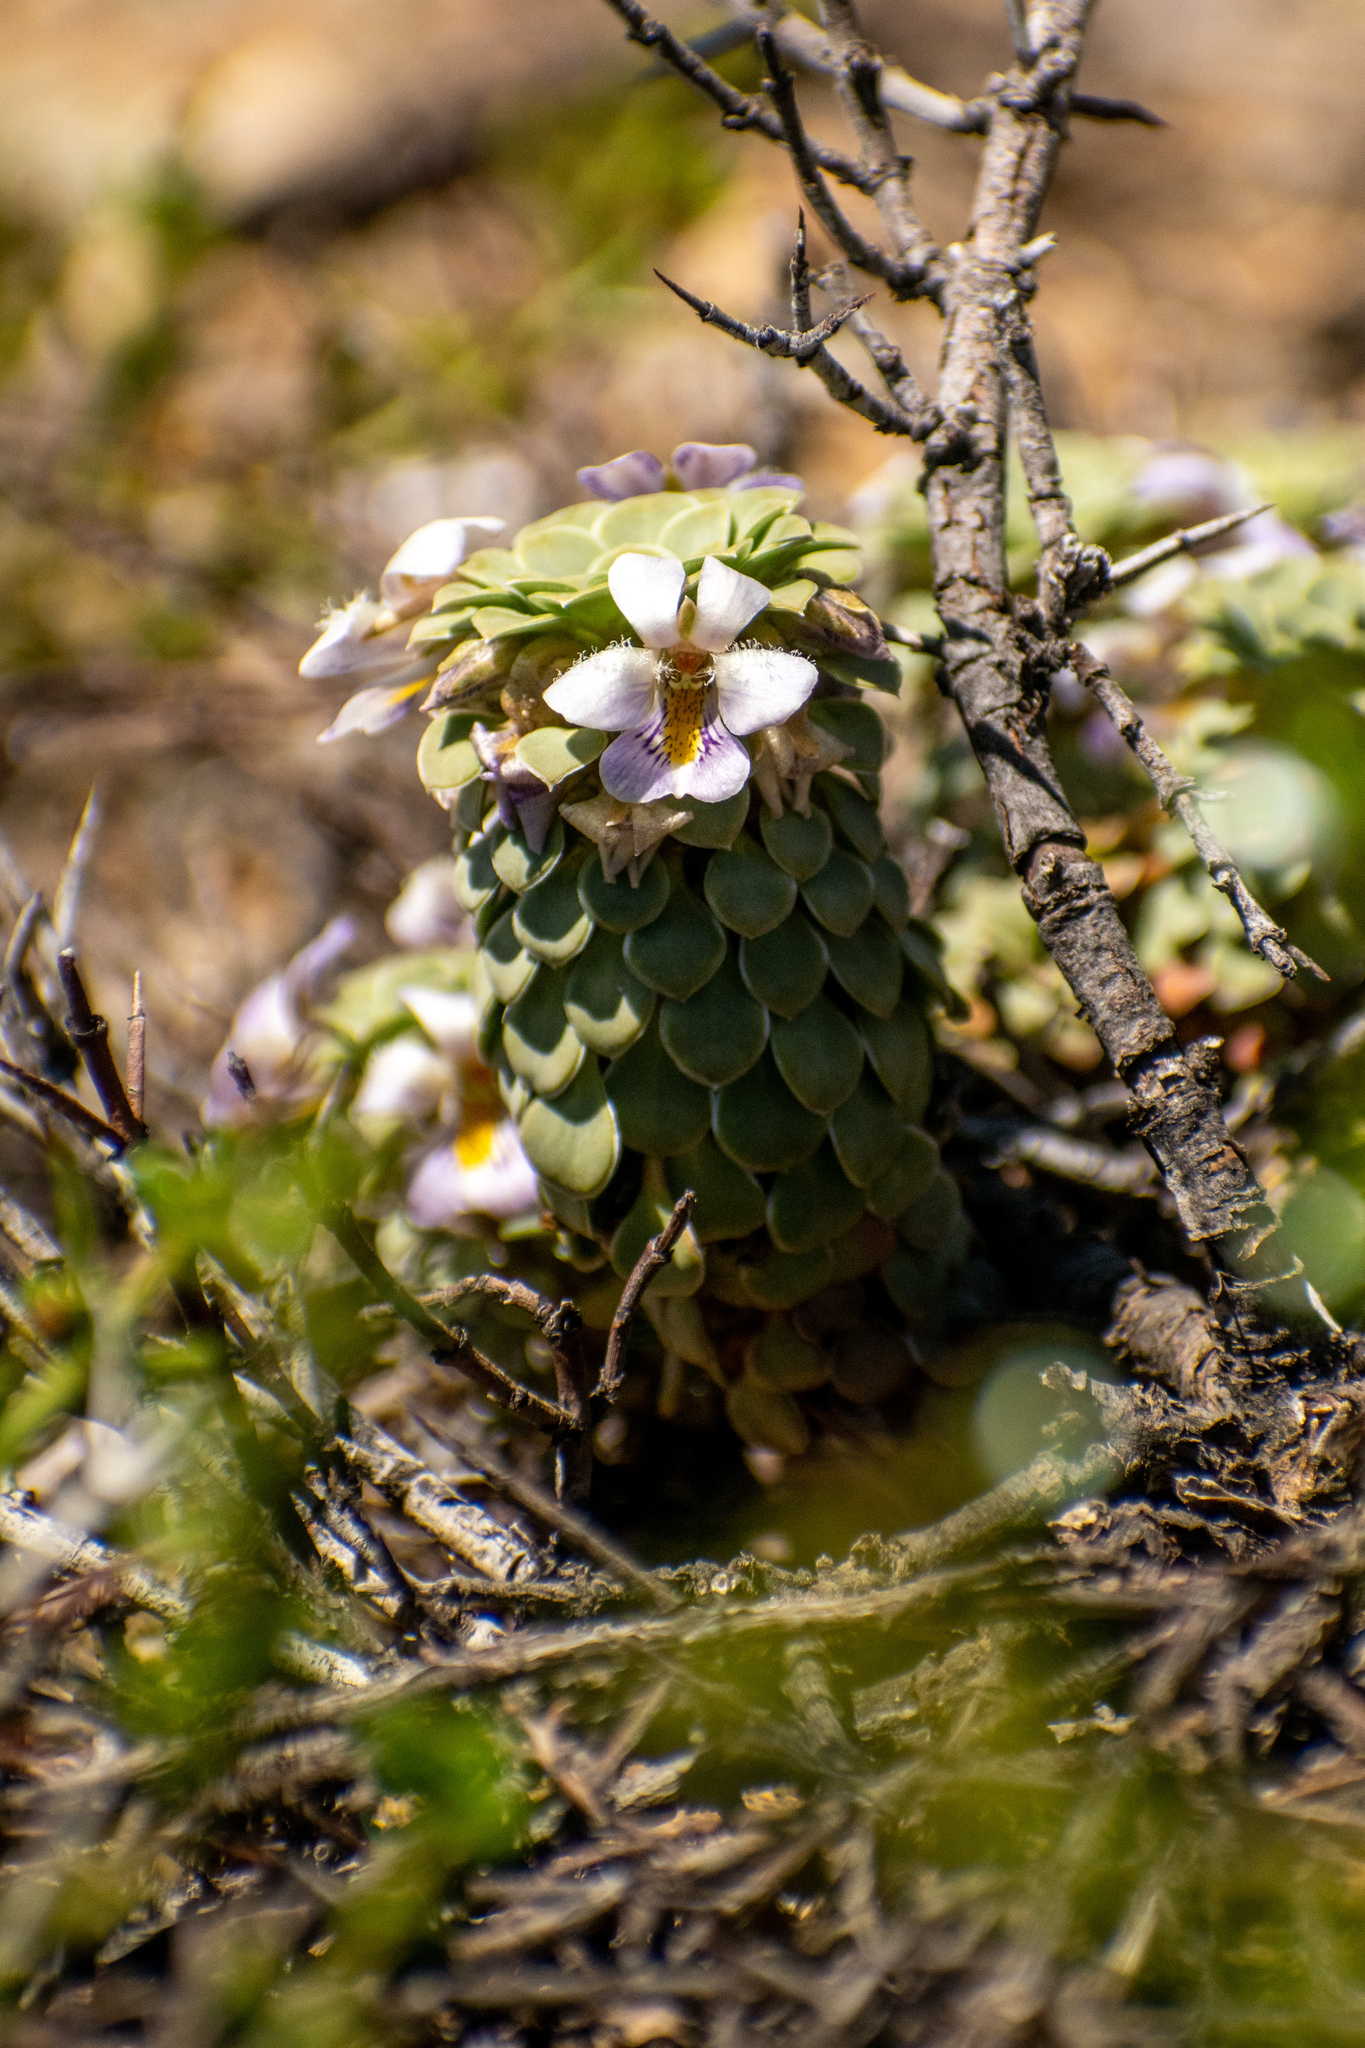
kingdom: Plantae
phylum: Tracheophyta
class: Magnoliopsida
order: Malpighiales
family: Violaceae
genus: Viola
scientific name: Viola petraea
